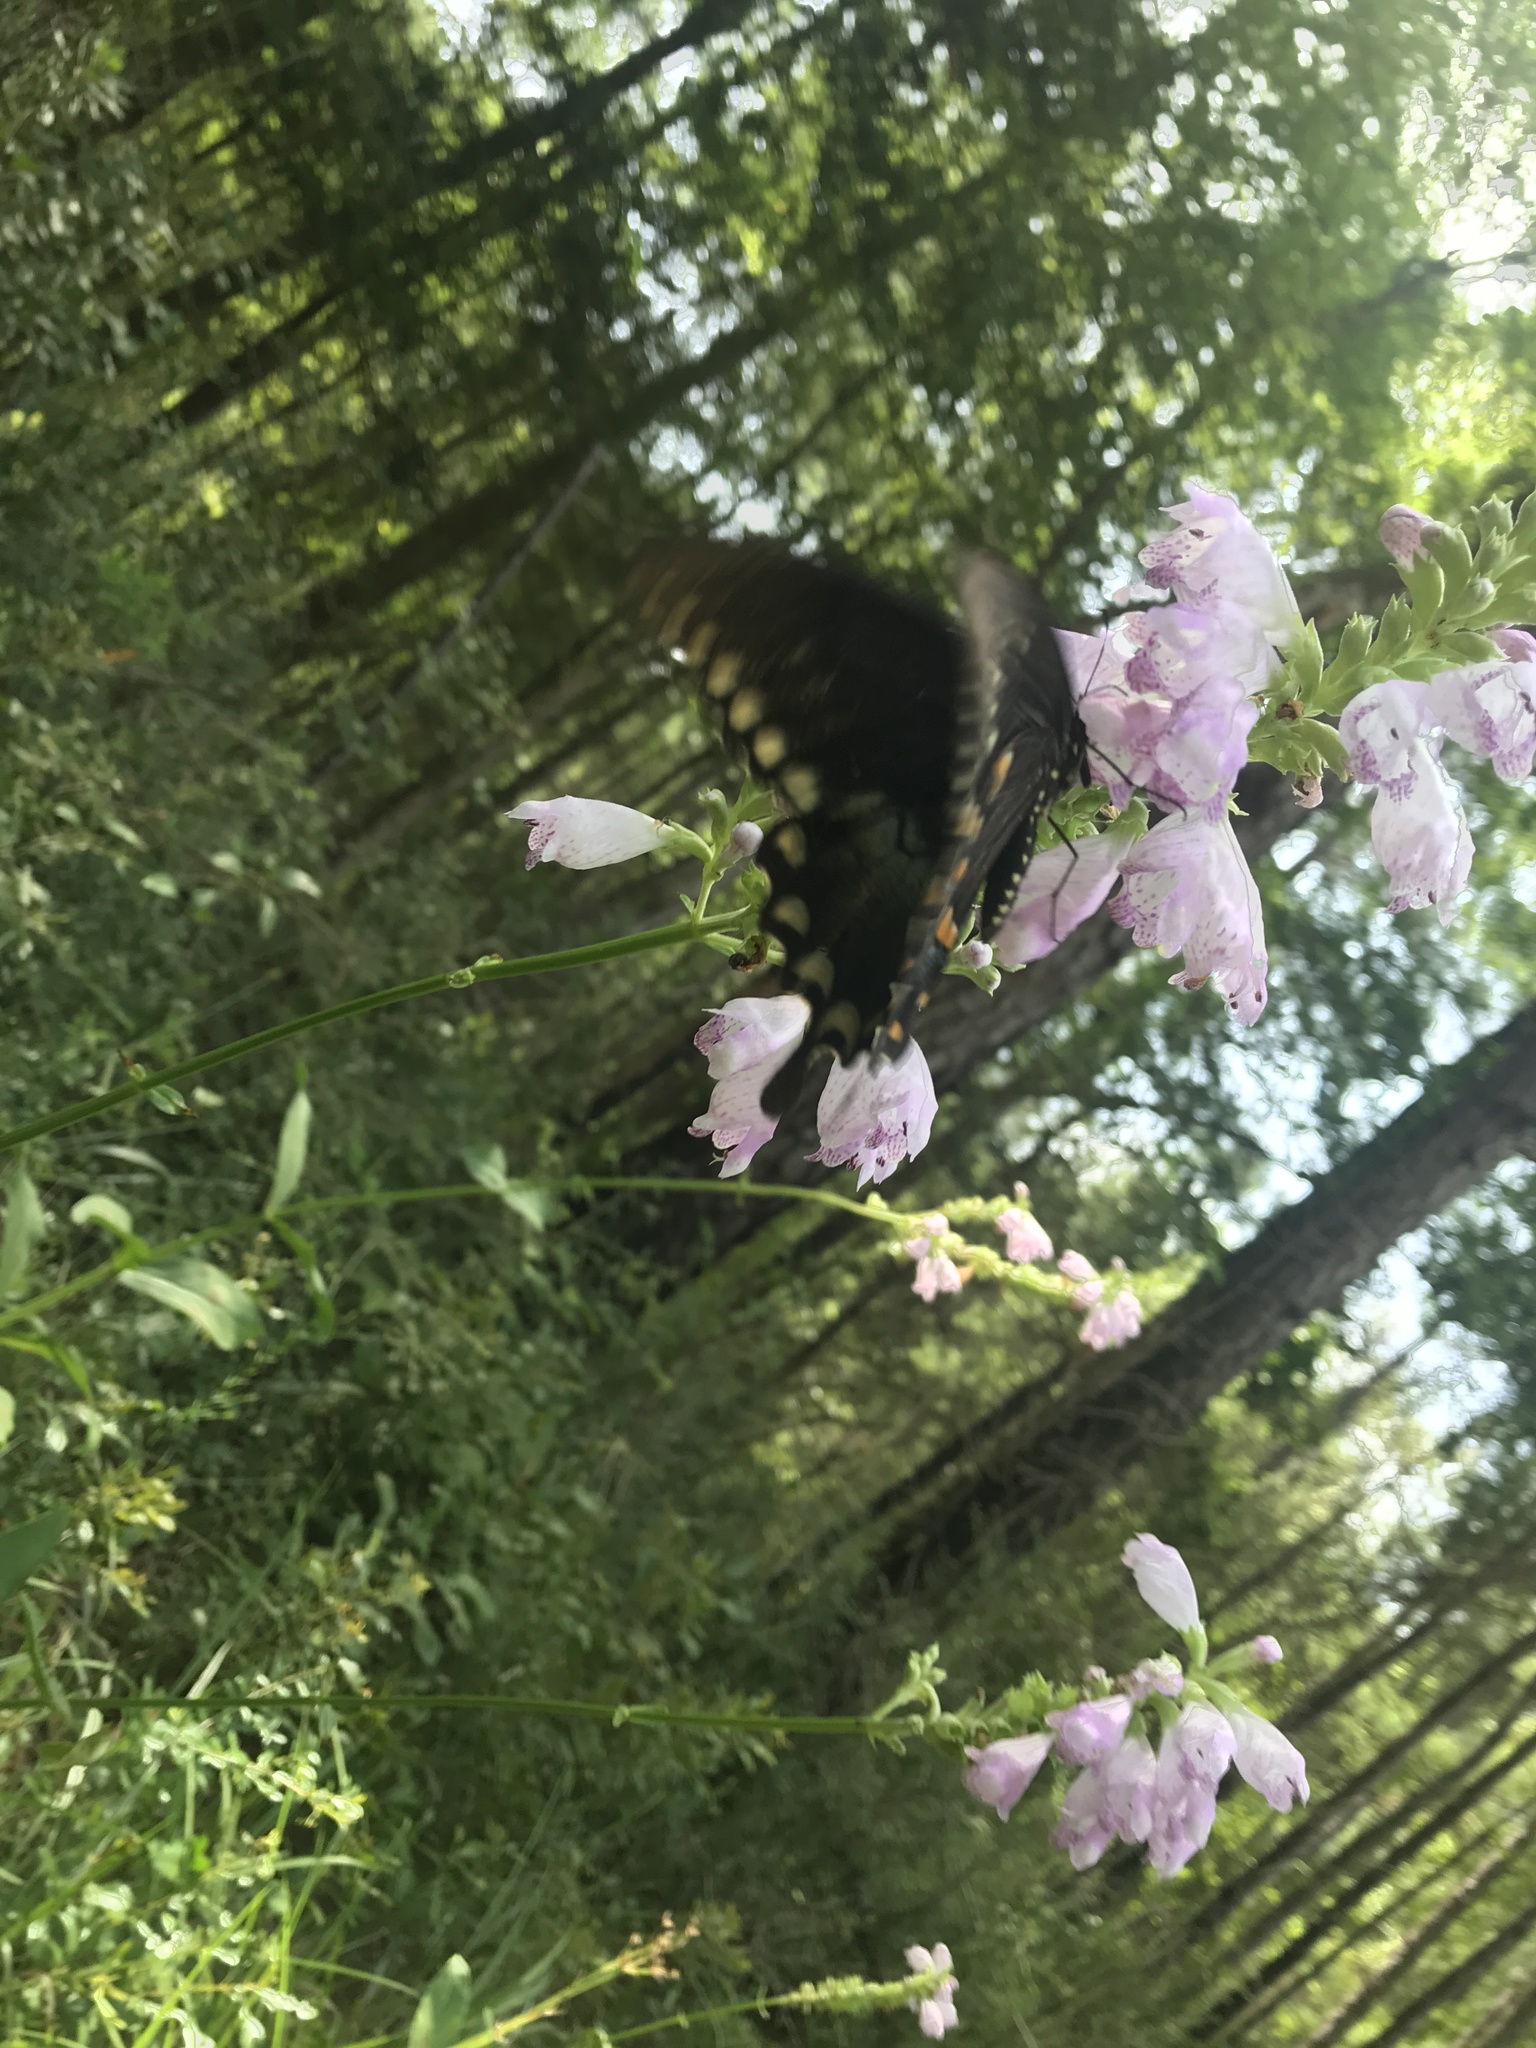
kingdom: Animalia
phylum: Arthropoda
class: Insecta
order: Lepidoptera
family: Papilionidae
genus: Papilio
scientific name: Papilio troilus
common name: Spicebush swallowtail
